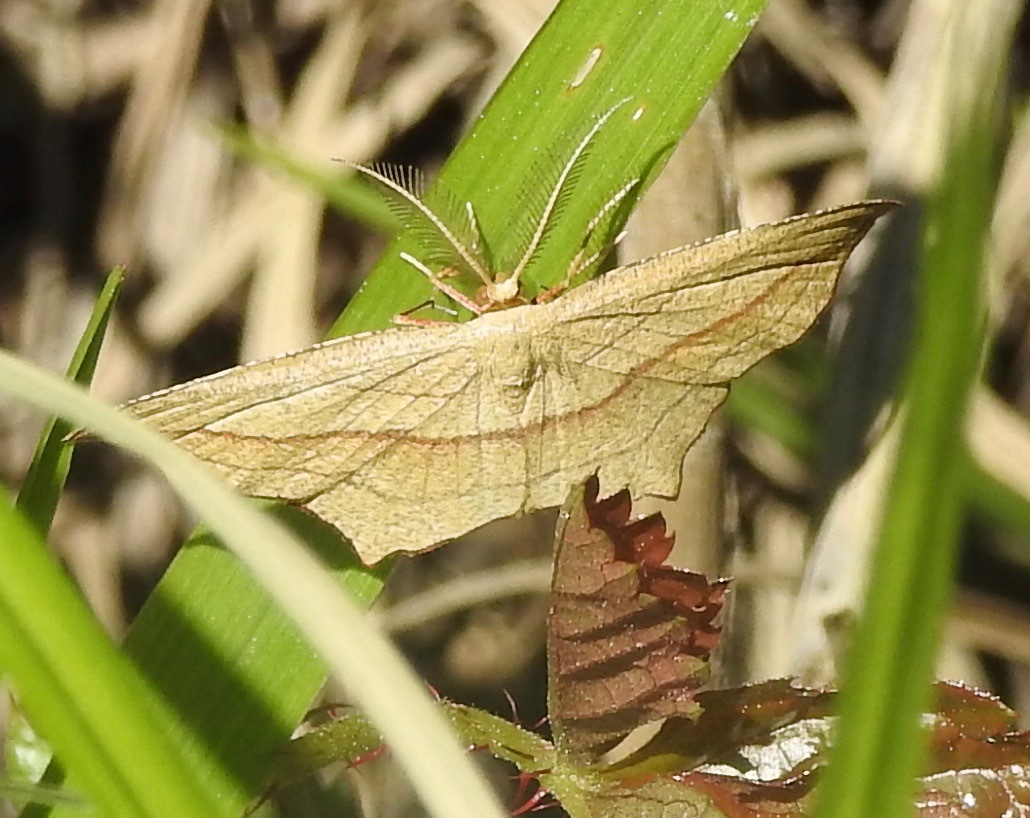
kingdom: Animalia
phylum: Arthropoda
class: Insecta
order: Lepidoptera
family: Geometridae
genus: Timandra
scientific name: Timandra amaturaria
